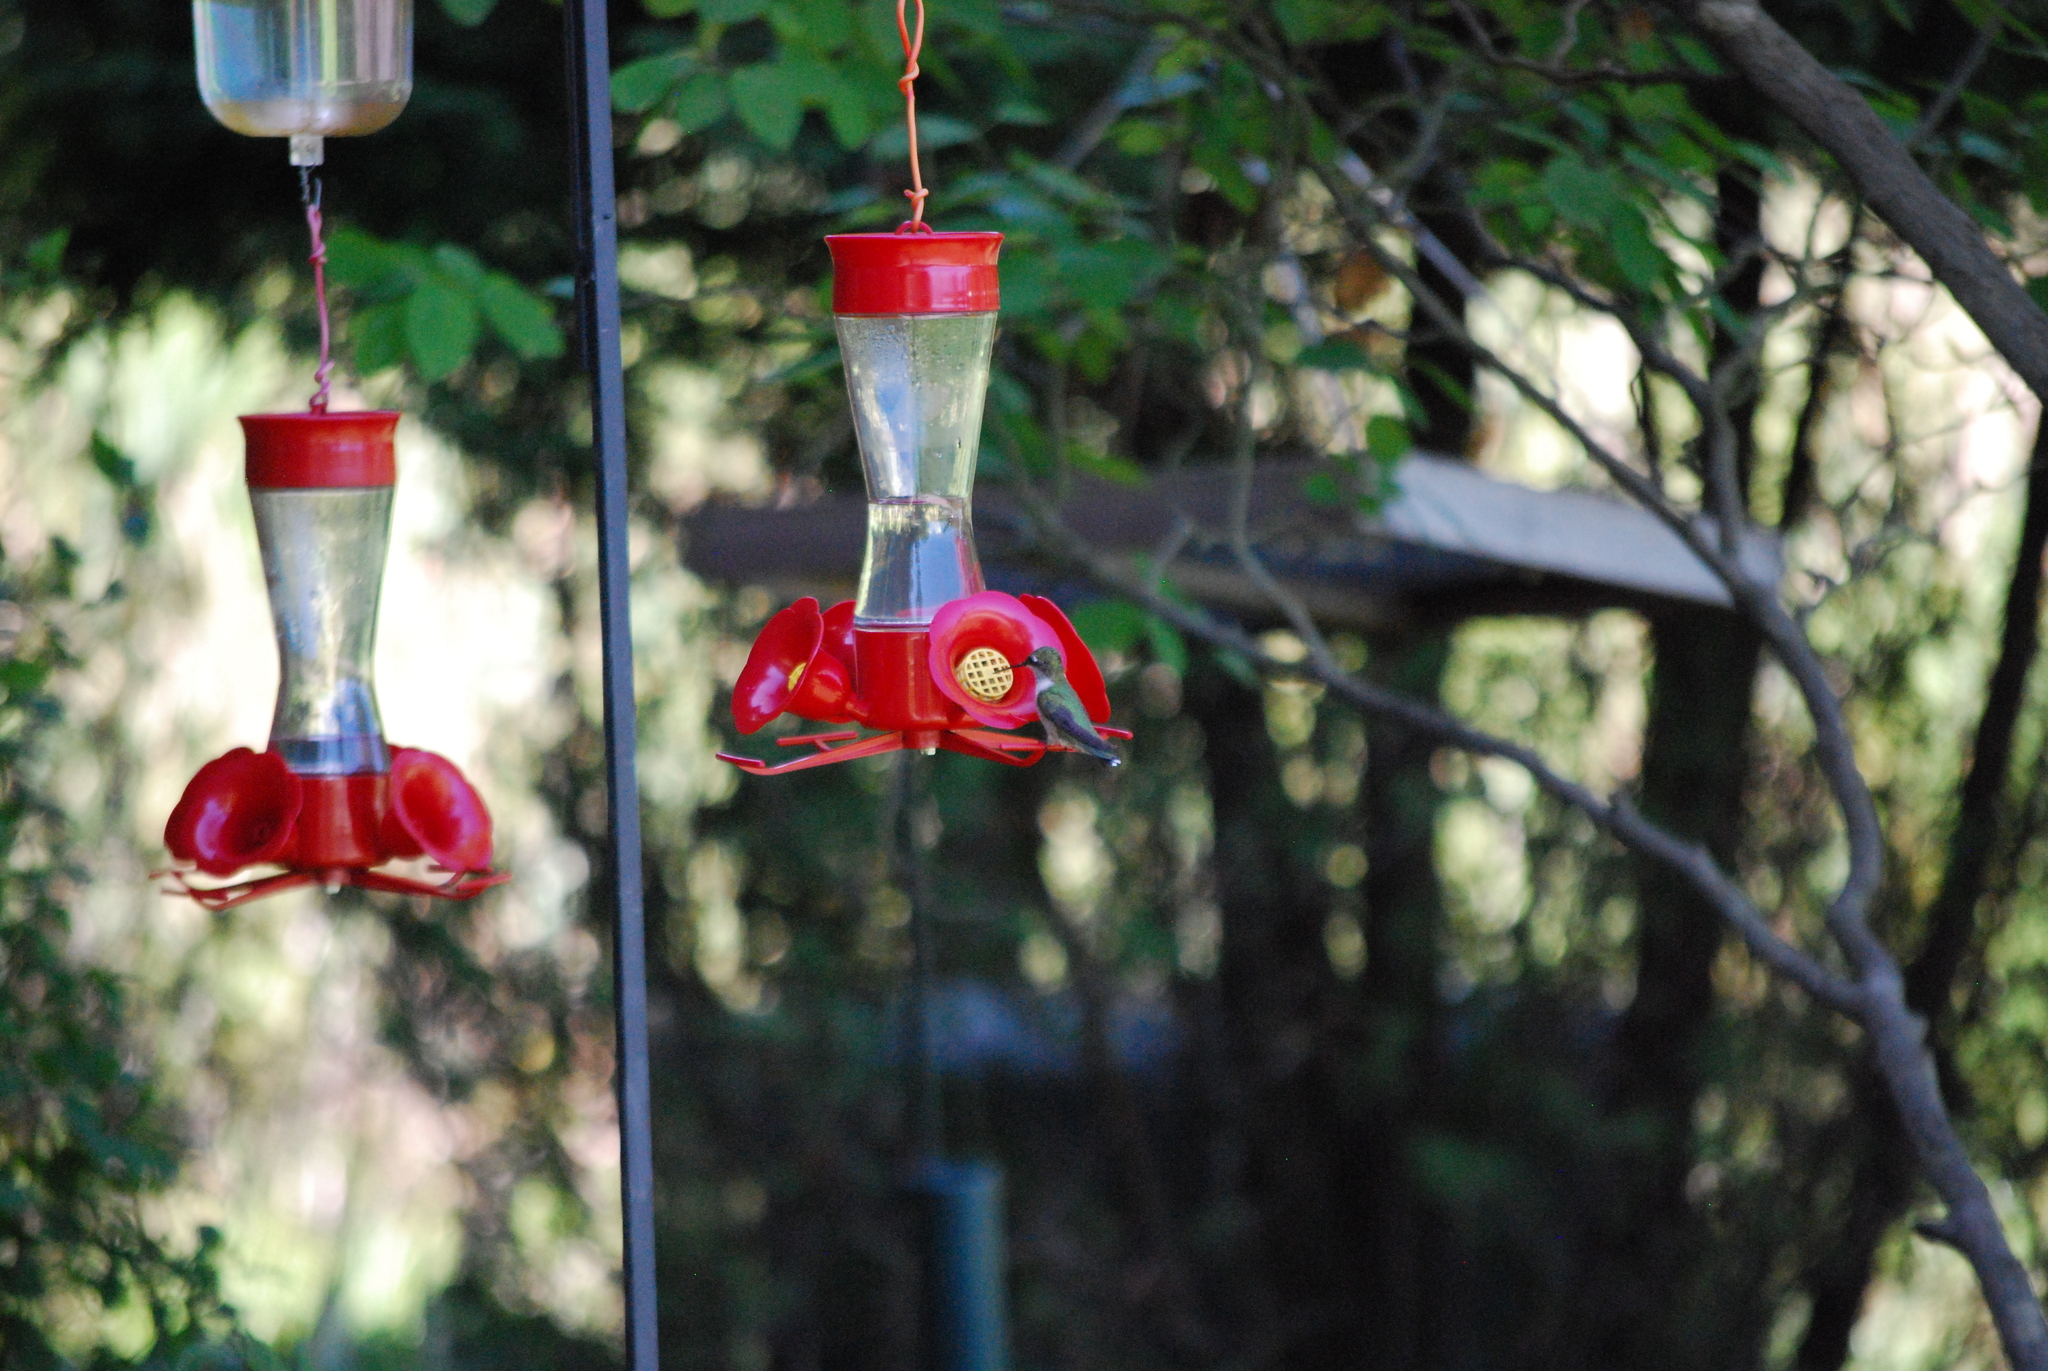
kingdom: Animalia
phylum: Chordata
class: Aves
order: Apodiformes
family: Trochilidae
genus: Archilochus
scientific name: Archilochus colubris
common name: Ruby-throated hummingbird
